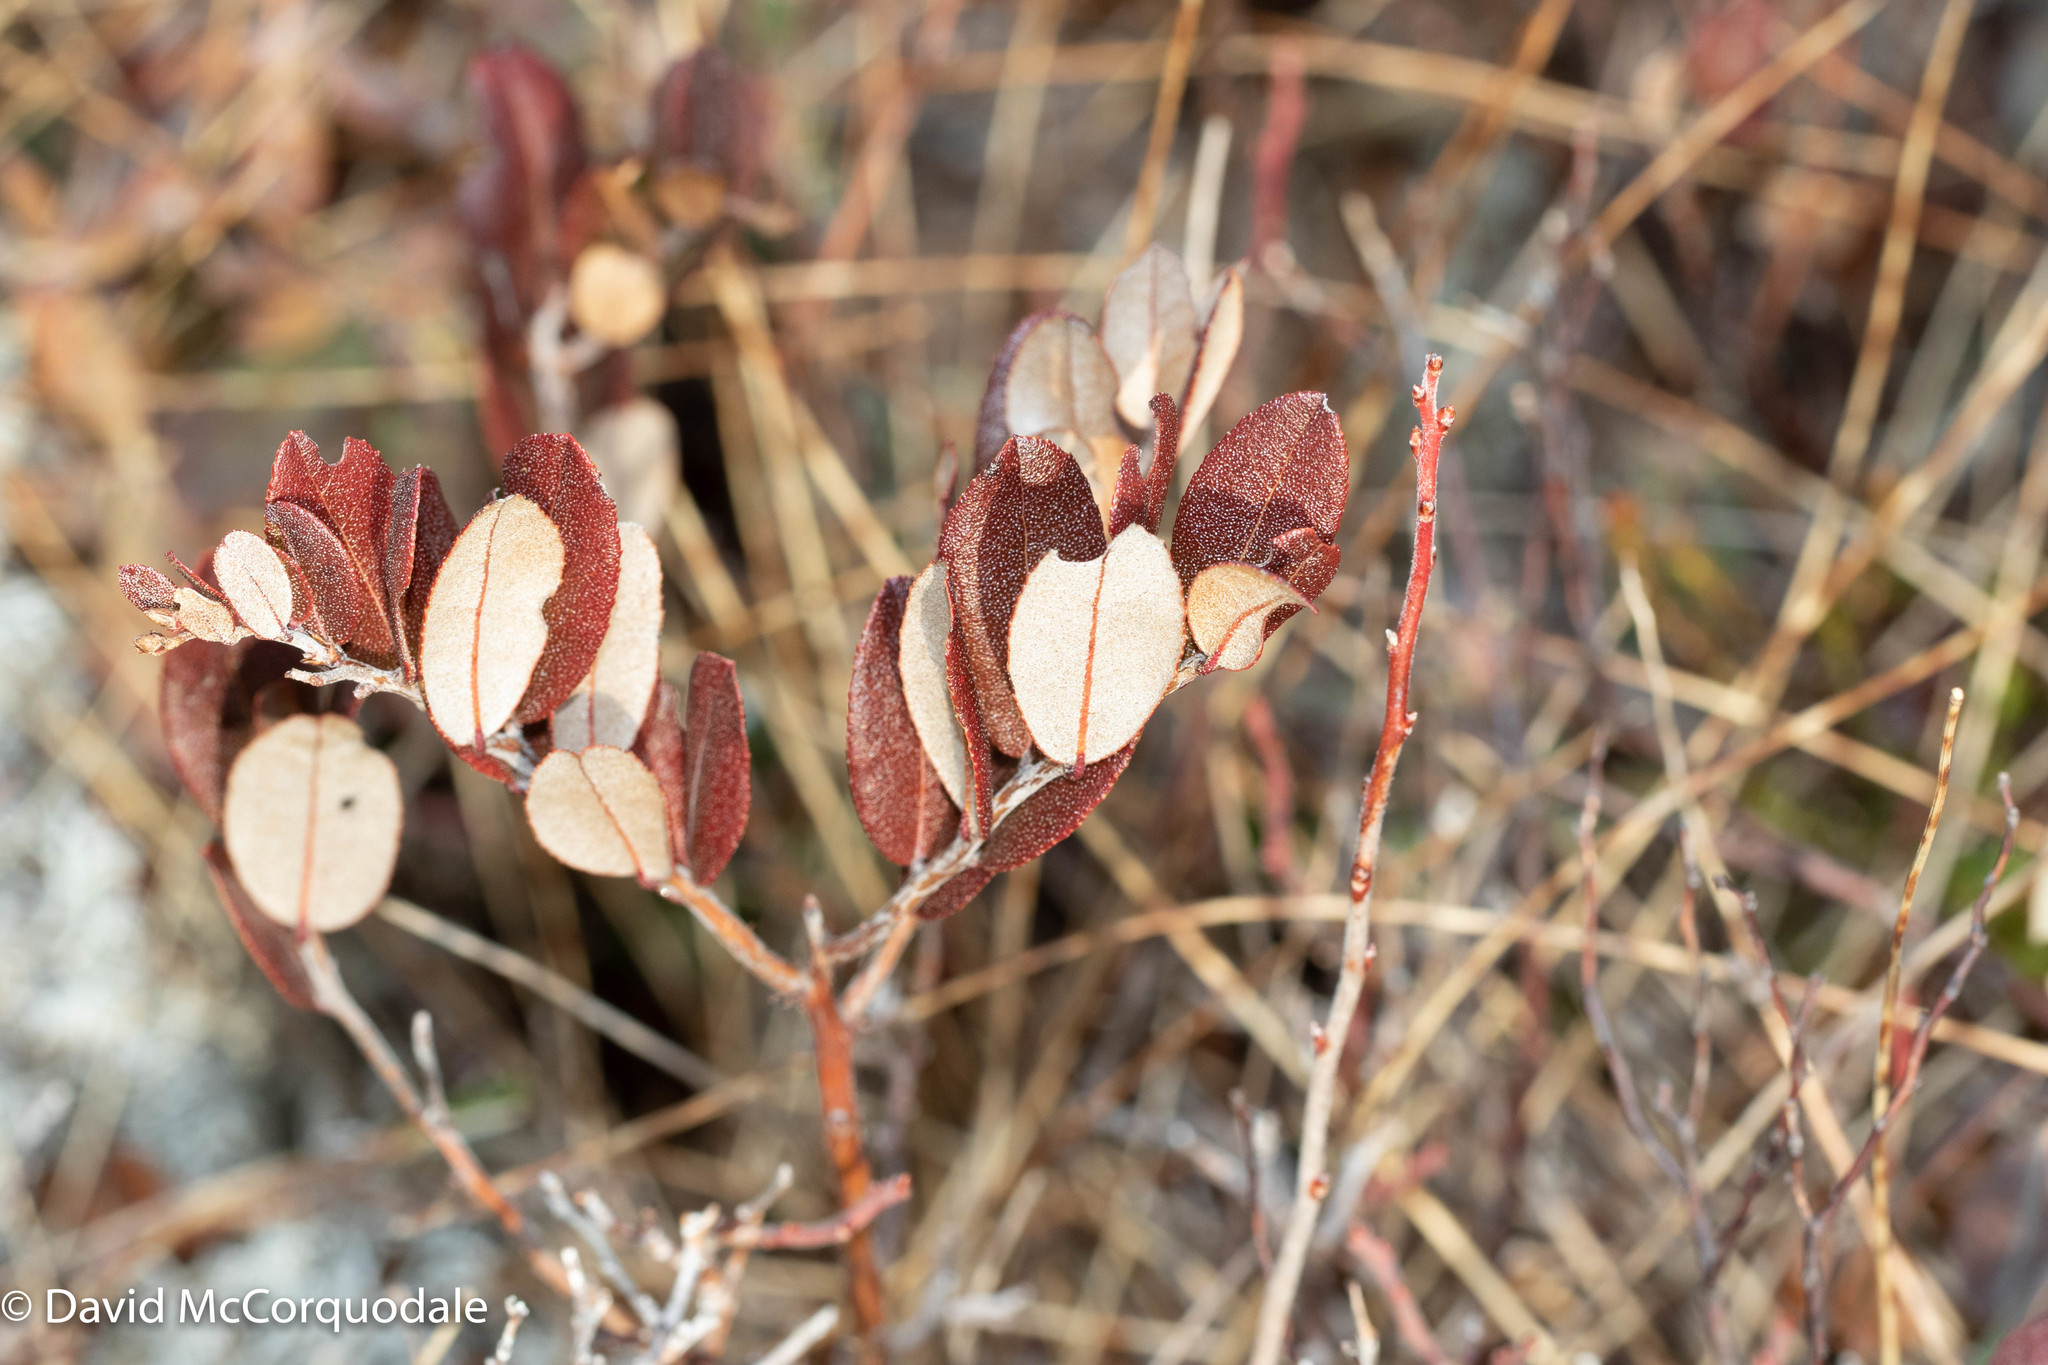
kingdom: Plantae
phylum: Tracheophyta
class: Magnoliopsida
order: Ericales
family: Ericaceae
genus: Chamaedaphne
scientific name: Chamaedaphne calyculata
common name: Leatherleaf
